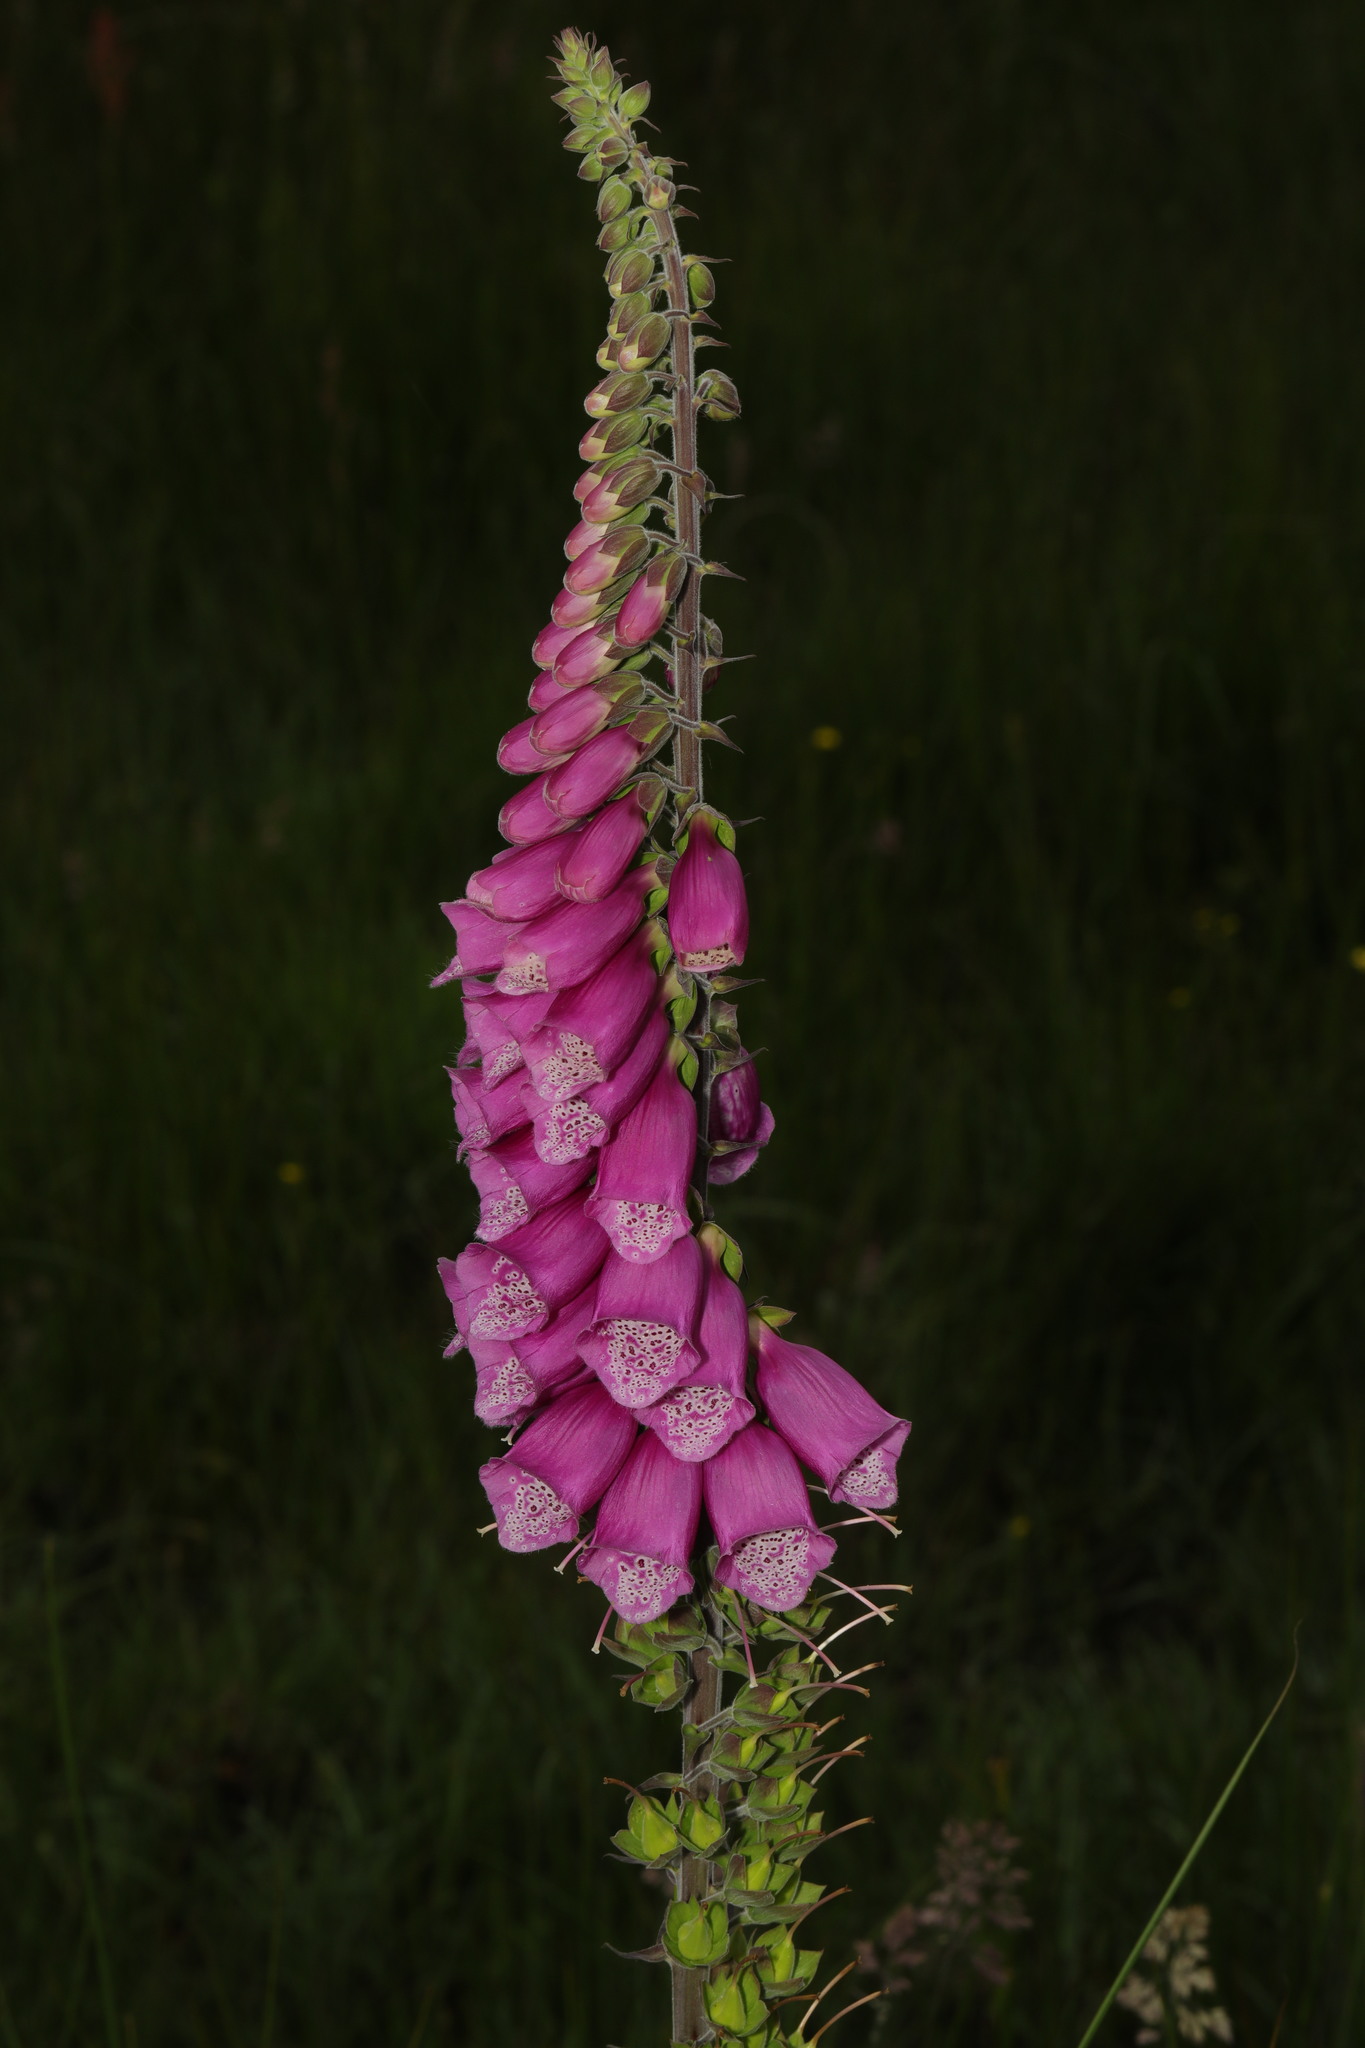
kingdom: Plantae
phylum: Tracheophyta
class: Magnoliopsida
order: Lamiales
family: Plantaginaceae
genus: Digitalis
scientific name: Digitalis purpurea
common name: Foxglove
